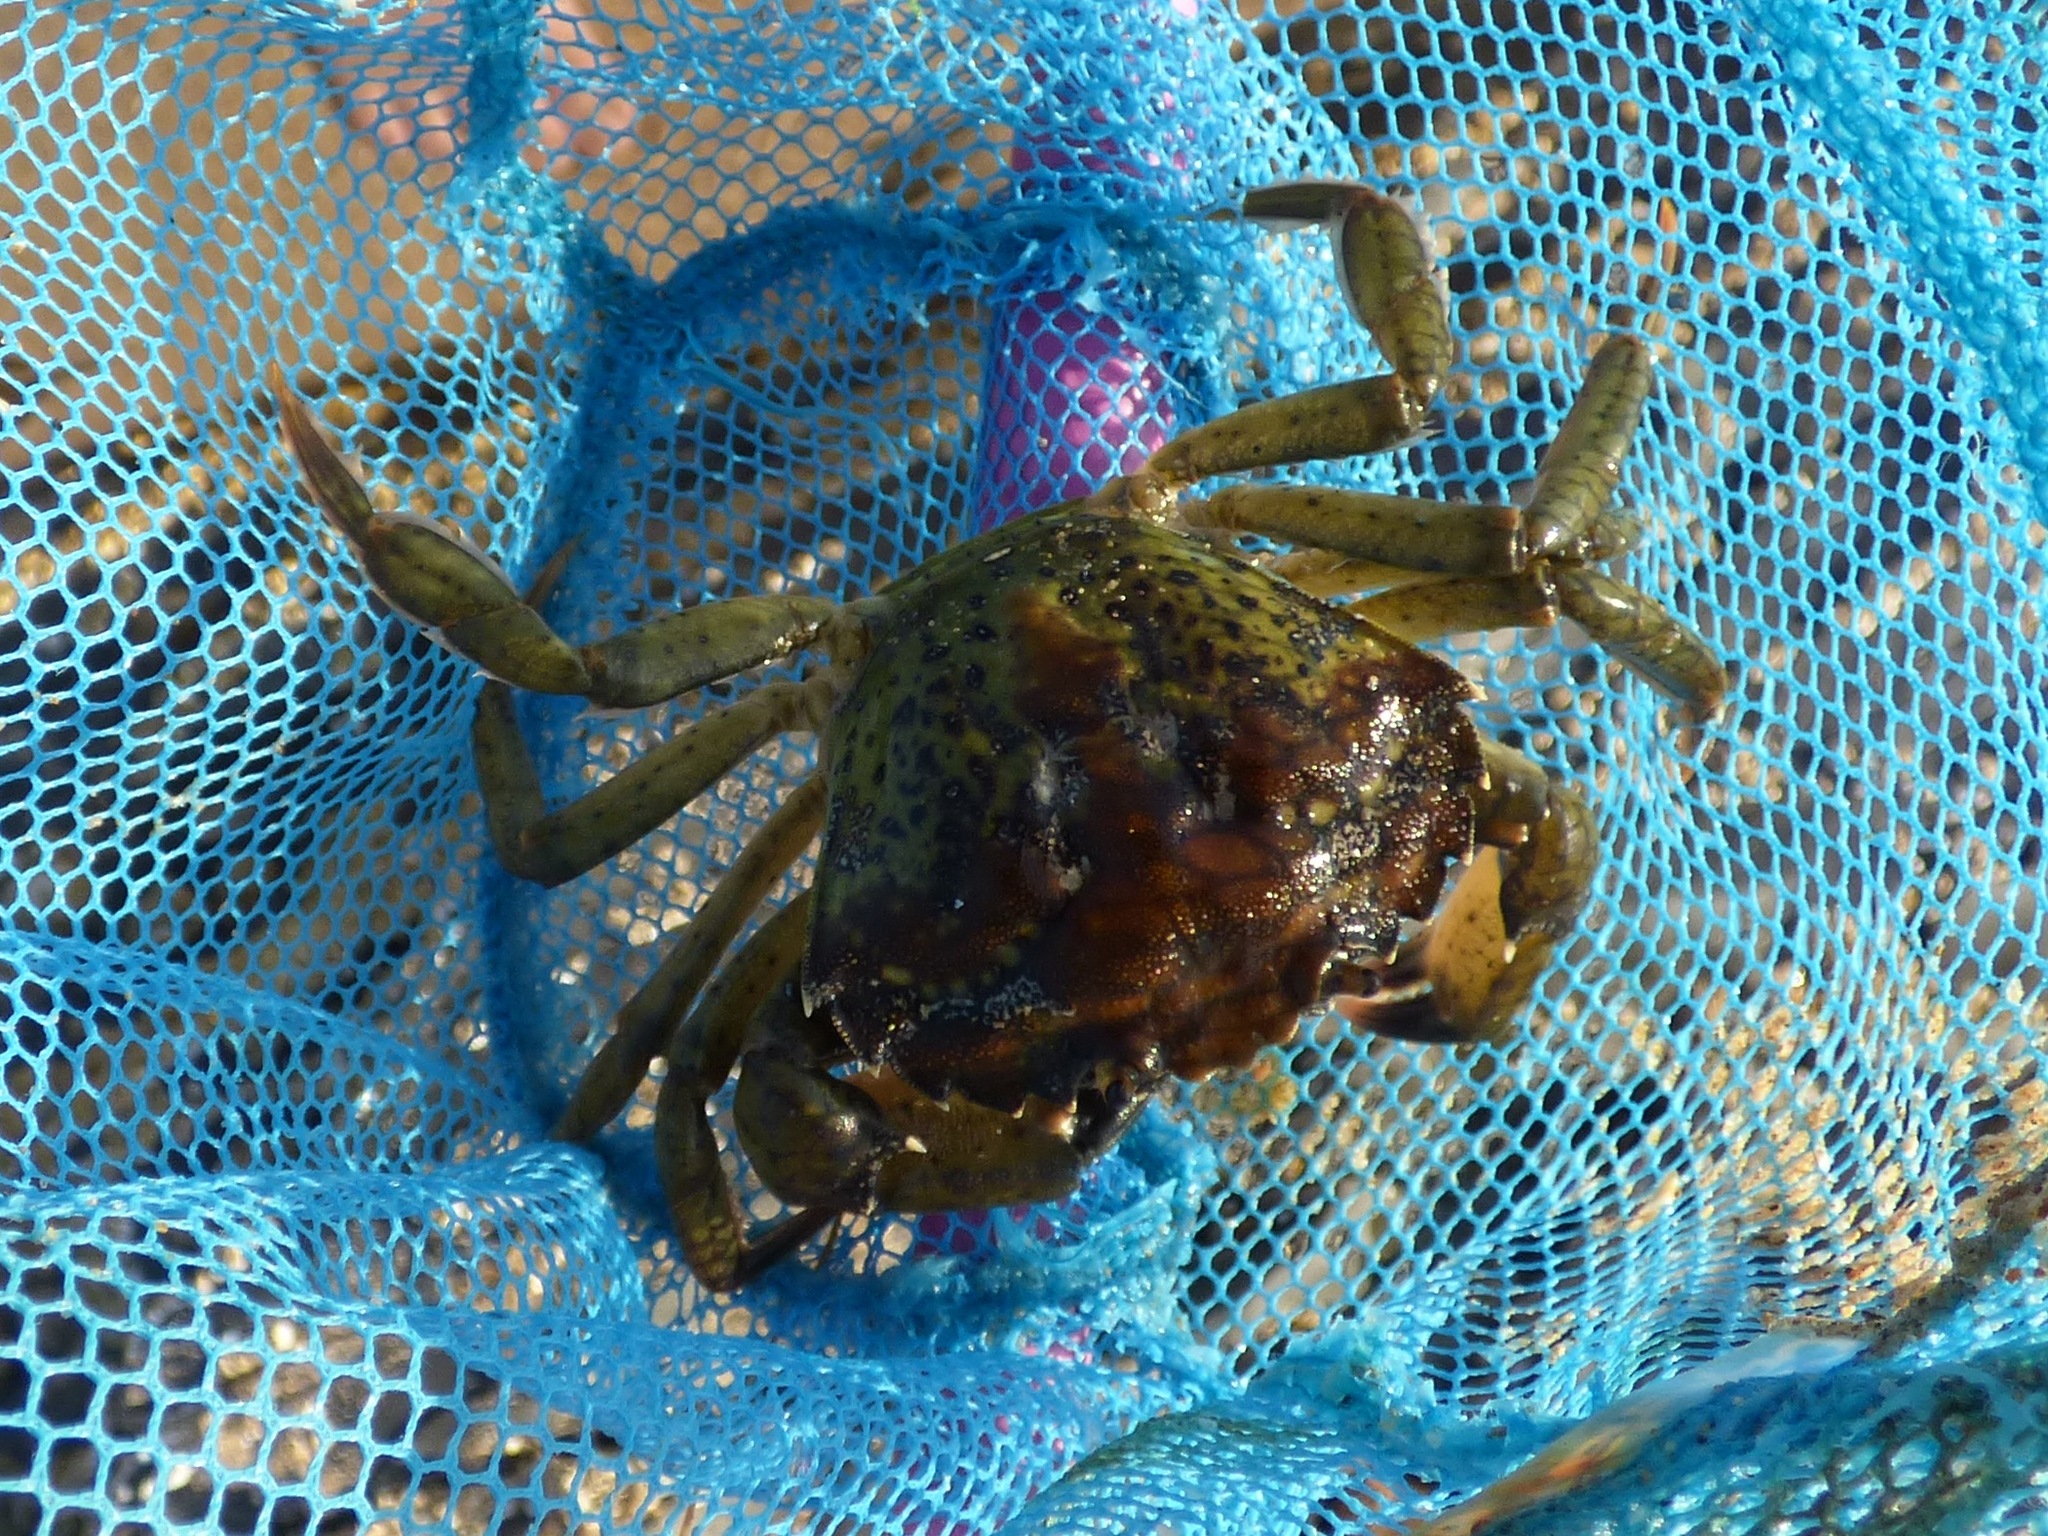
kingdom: Animalia
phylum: Arthropoda
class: Malacostraca
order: Decapoda
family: Carcinidae
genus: Carcinus
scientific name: Carcinus maenas
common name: European green crab
